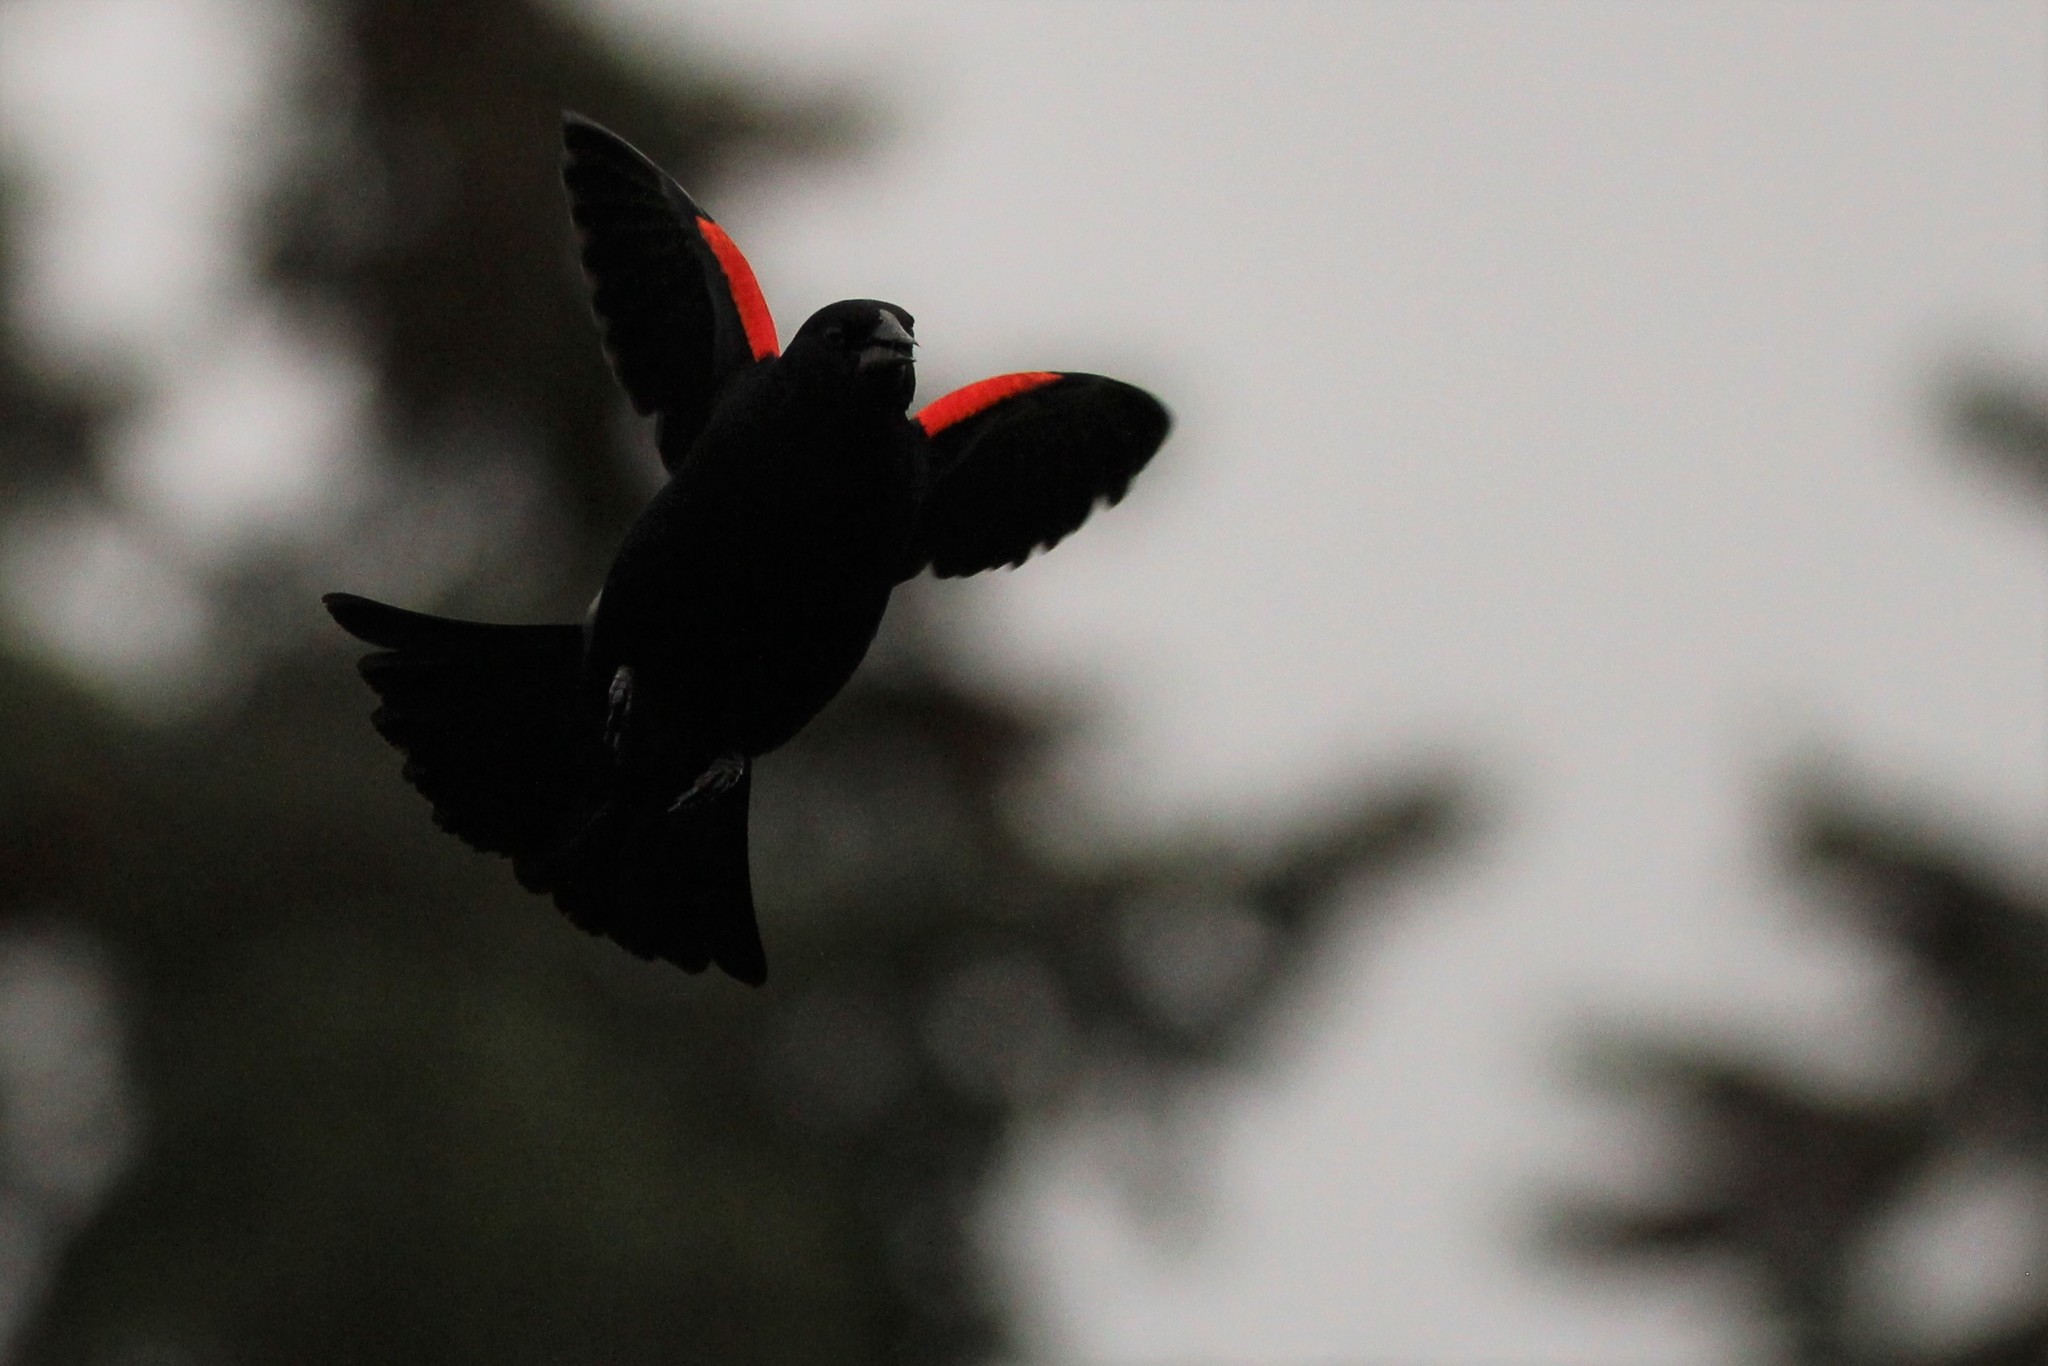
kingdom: Animalia
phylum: Chordata
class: Aves
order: Passeriformes
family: Icteridae
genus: Agelaius
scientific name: Agelaius phoeniceus
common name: Red-winged blackbird
